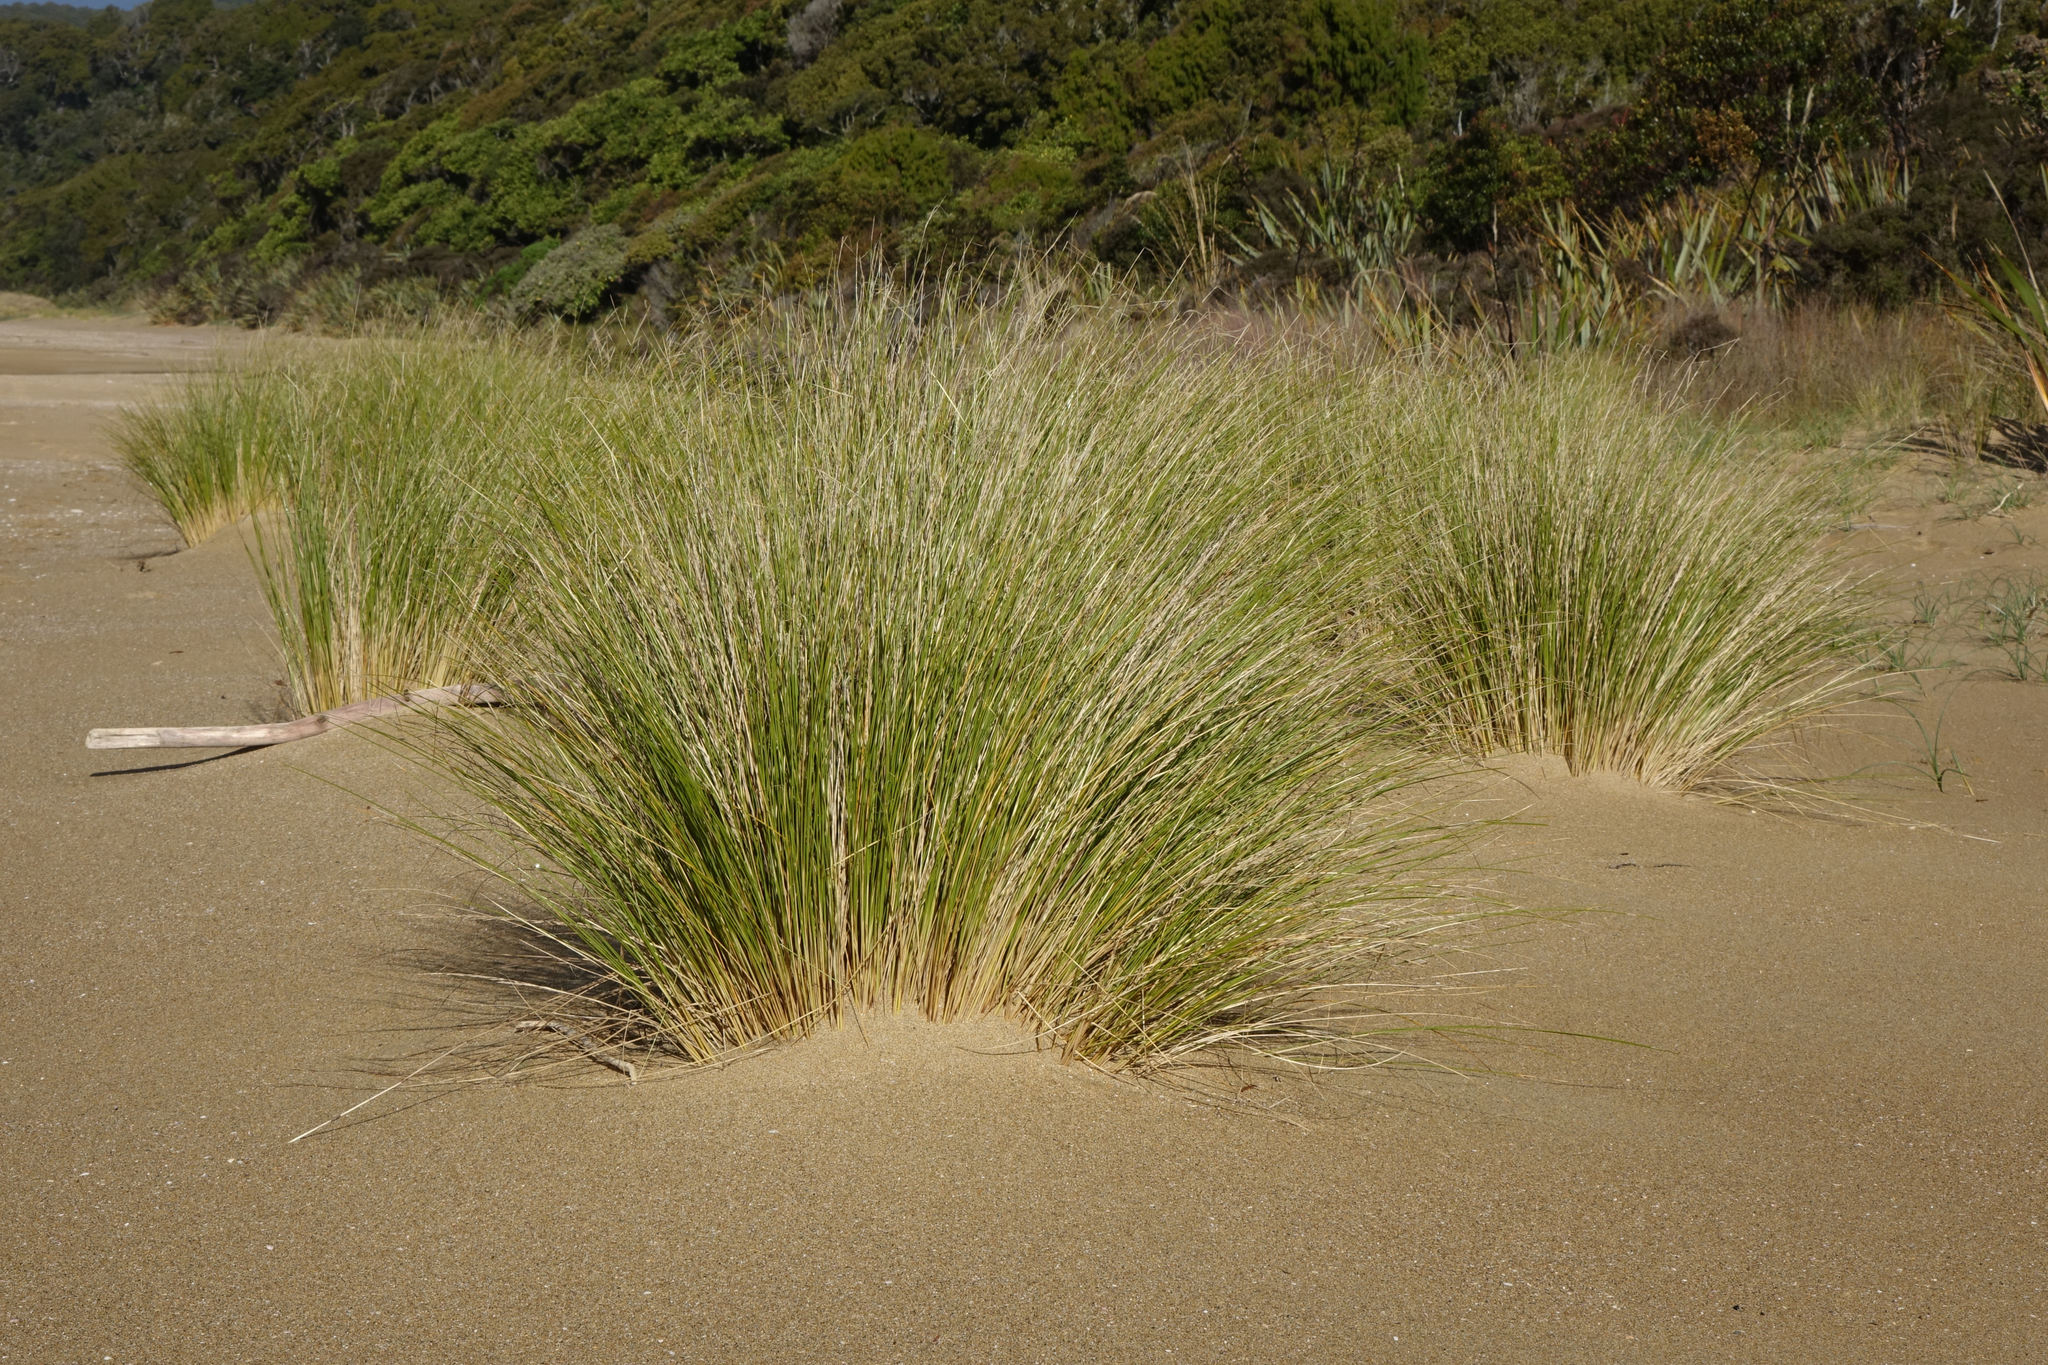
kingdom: Plantae
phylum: Tracheophyta
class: Liliopsida
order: Poales
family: Poaceae
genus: Poa
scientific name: Poa billardierei
